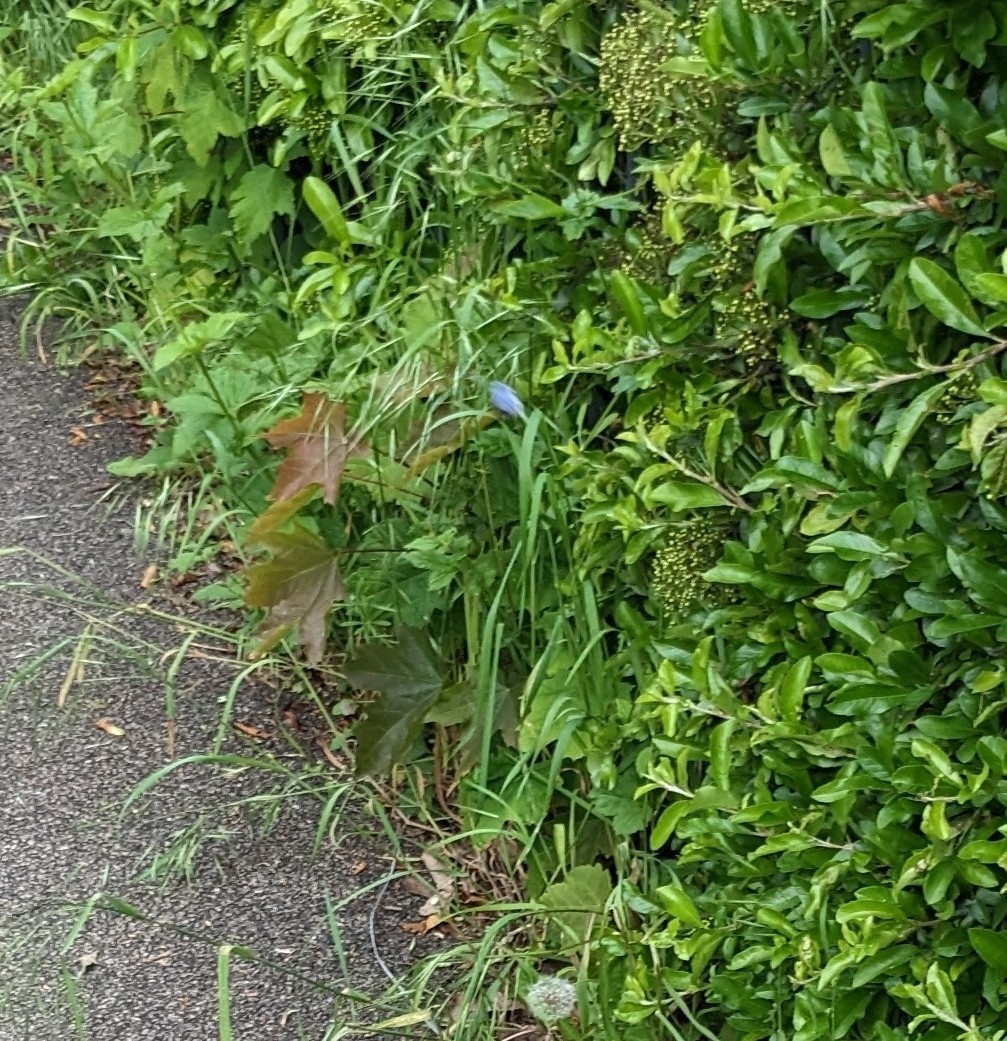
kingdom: Animalia
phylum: Arthropoda
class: Insecta
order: Lepidoptera
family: Lycaenidae
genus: Celastrina
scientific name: Celastrina argiolus
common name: Holly blue
